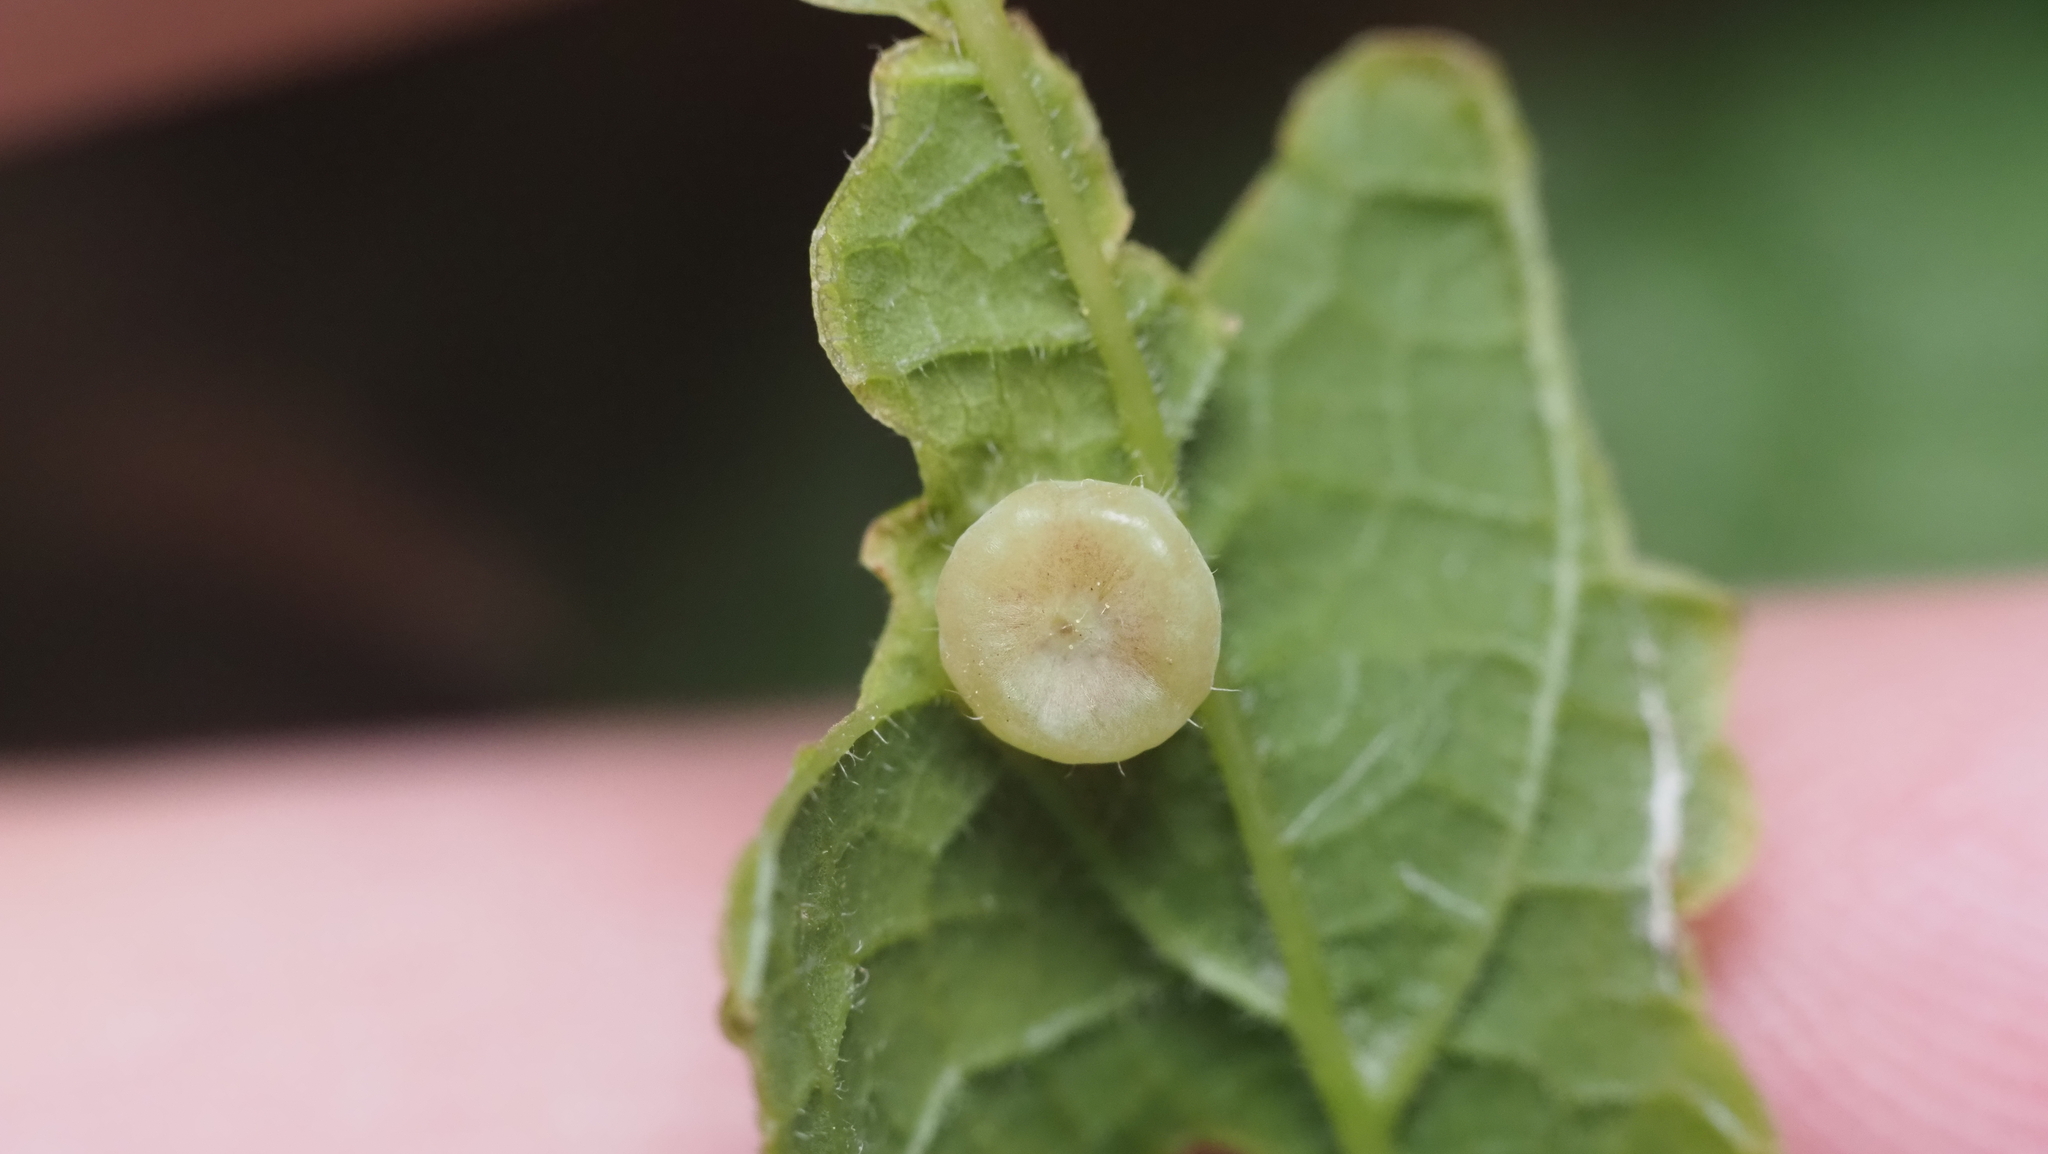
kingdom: Animalia
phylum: Arthropoda
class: Insecta
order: Hemiptera
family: Aphalaridae
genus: Pachypsylla
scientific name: Pachypsylla celtidismamma
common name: Hackberry nipplegall psyllid
